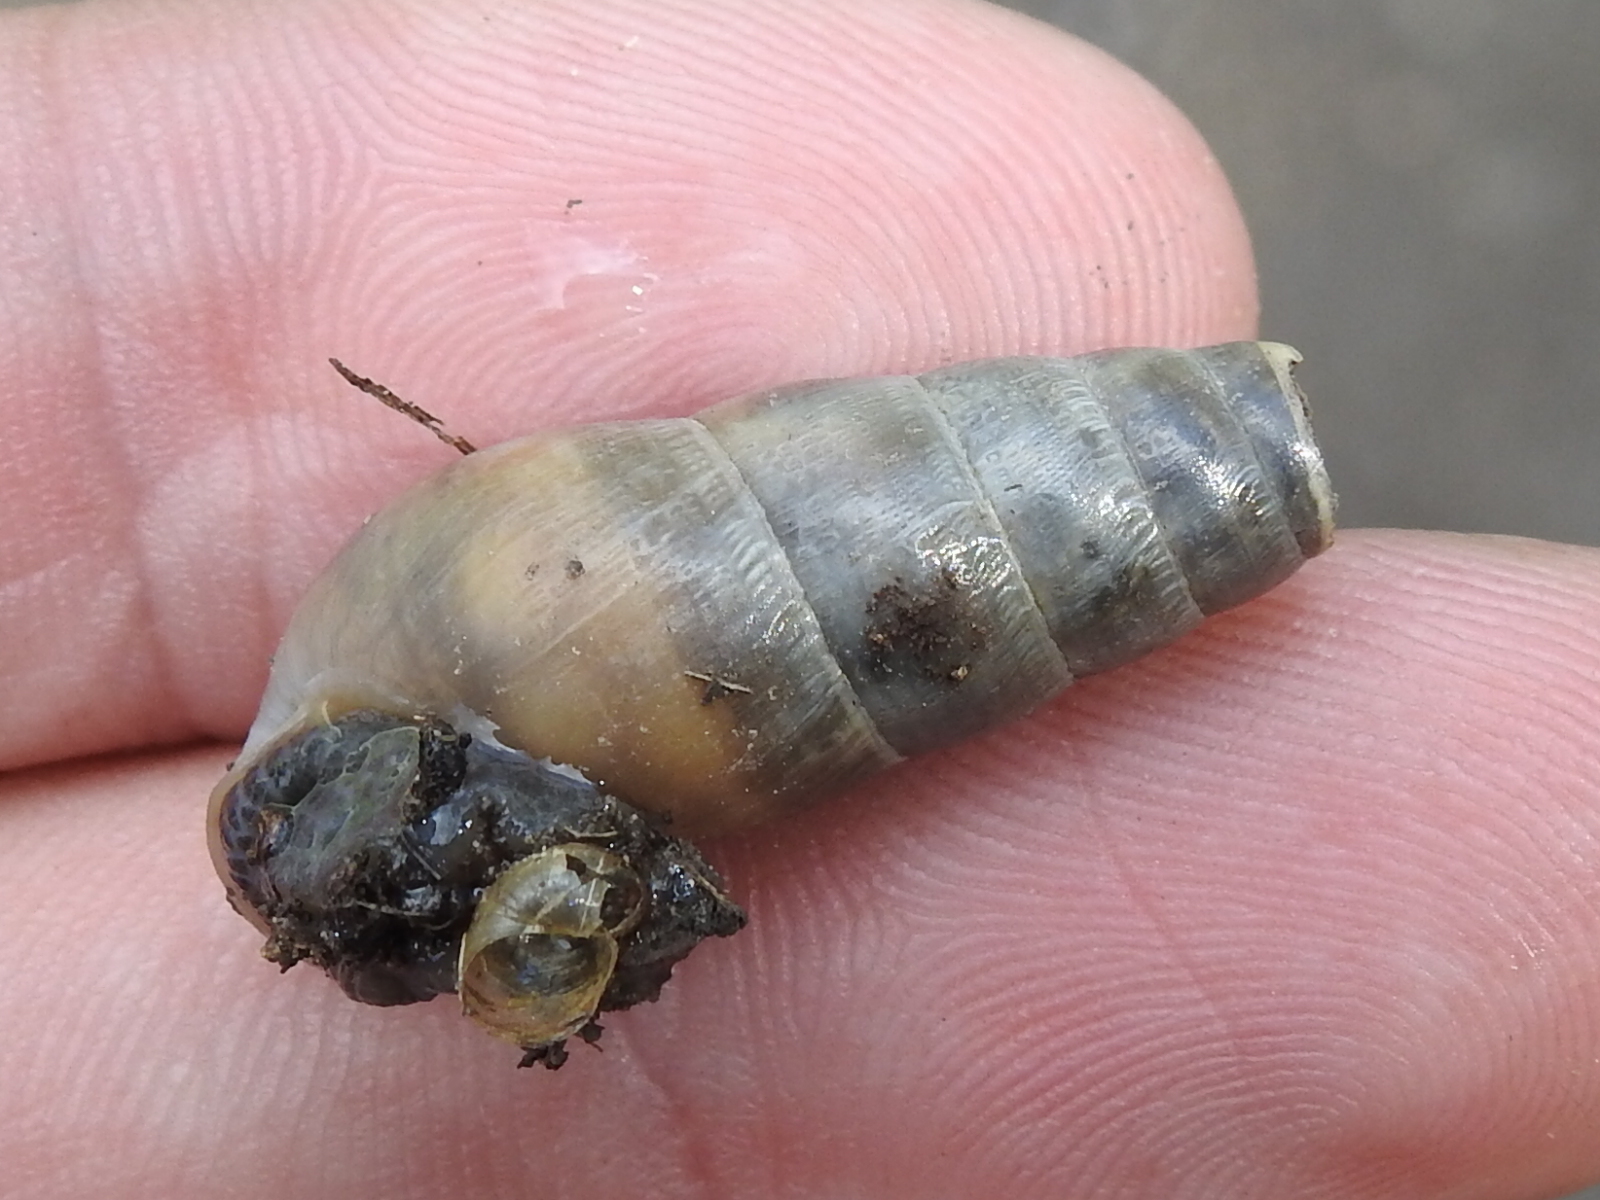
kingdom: Animalia
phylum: Mollusca
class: Gastropoda
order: Stylommatophora
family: Achatinidae
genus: Rumina
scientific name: Rumina decollata
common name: Decollate snail
